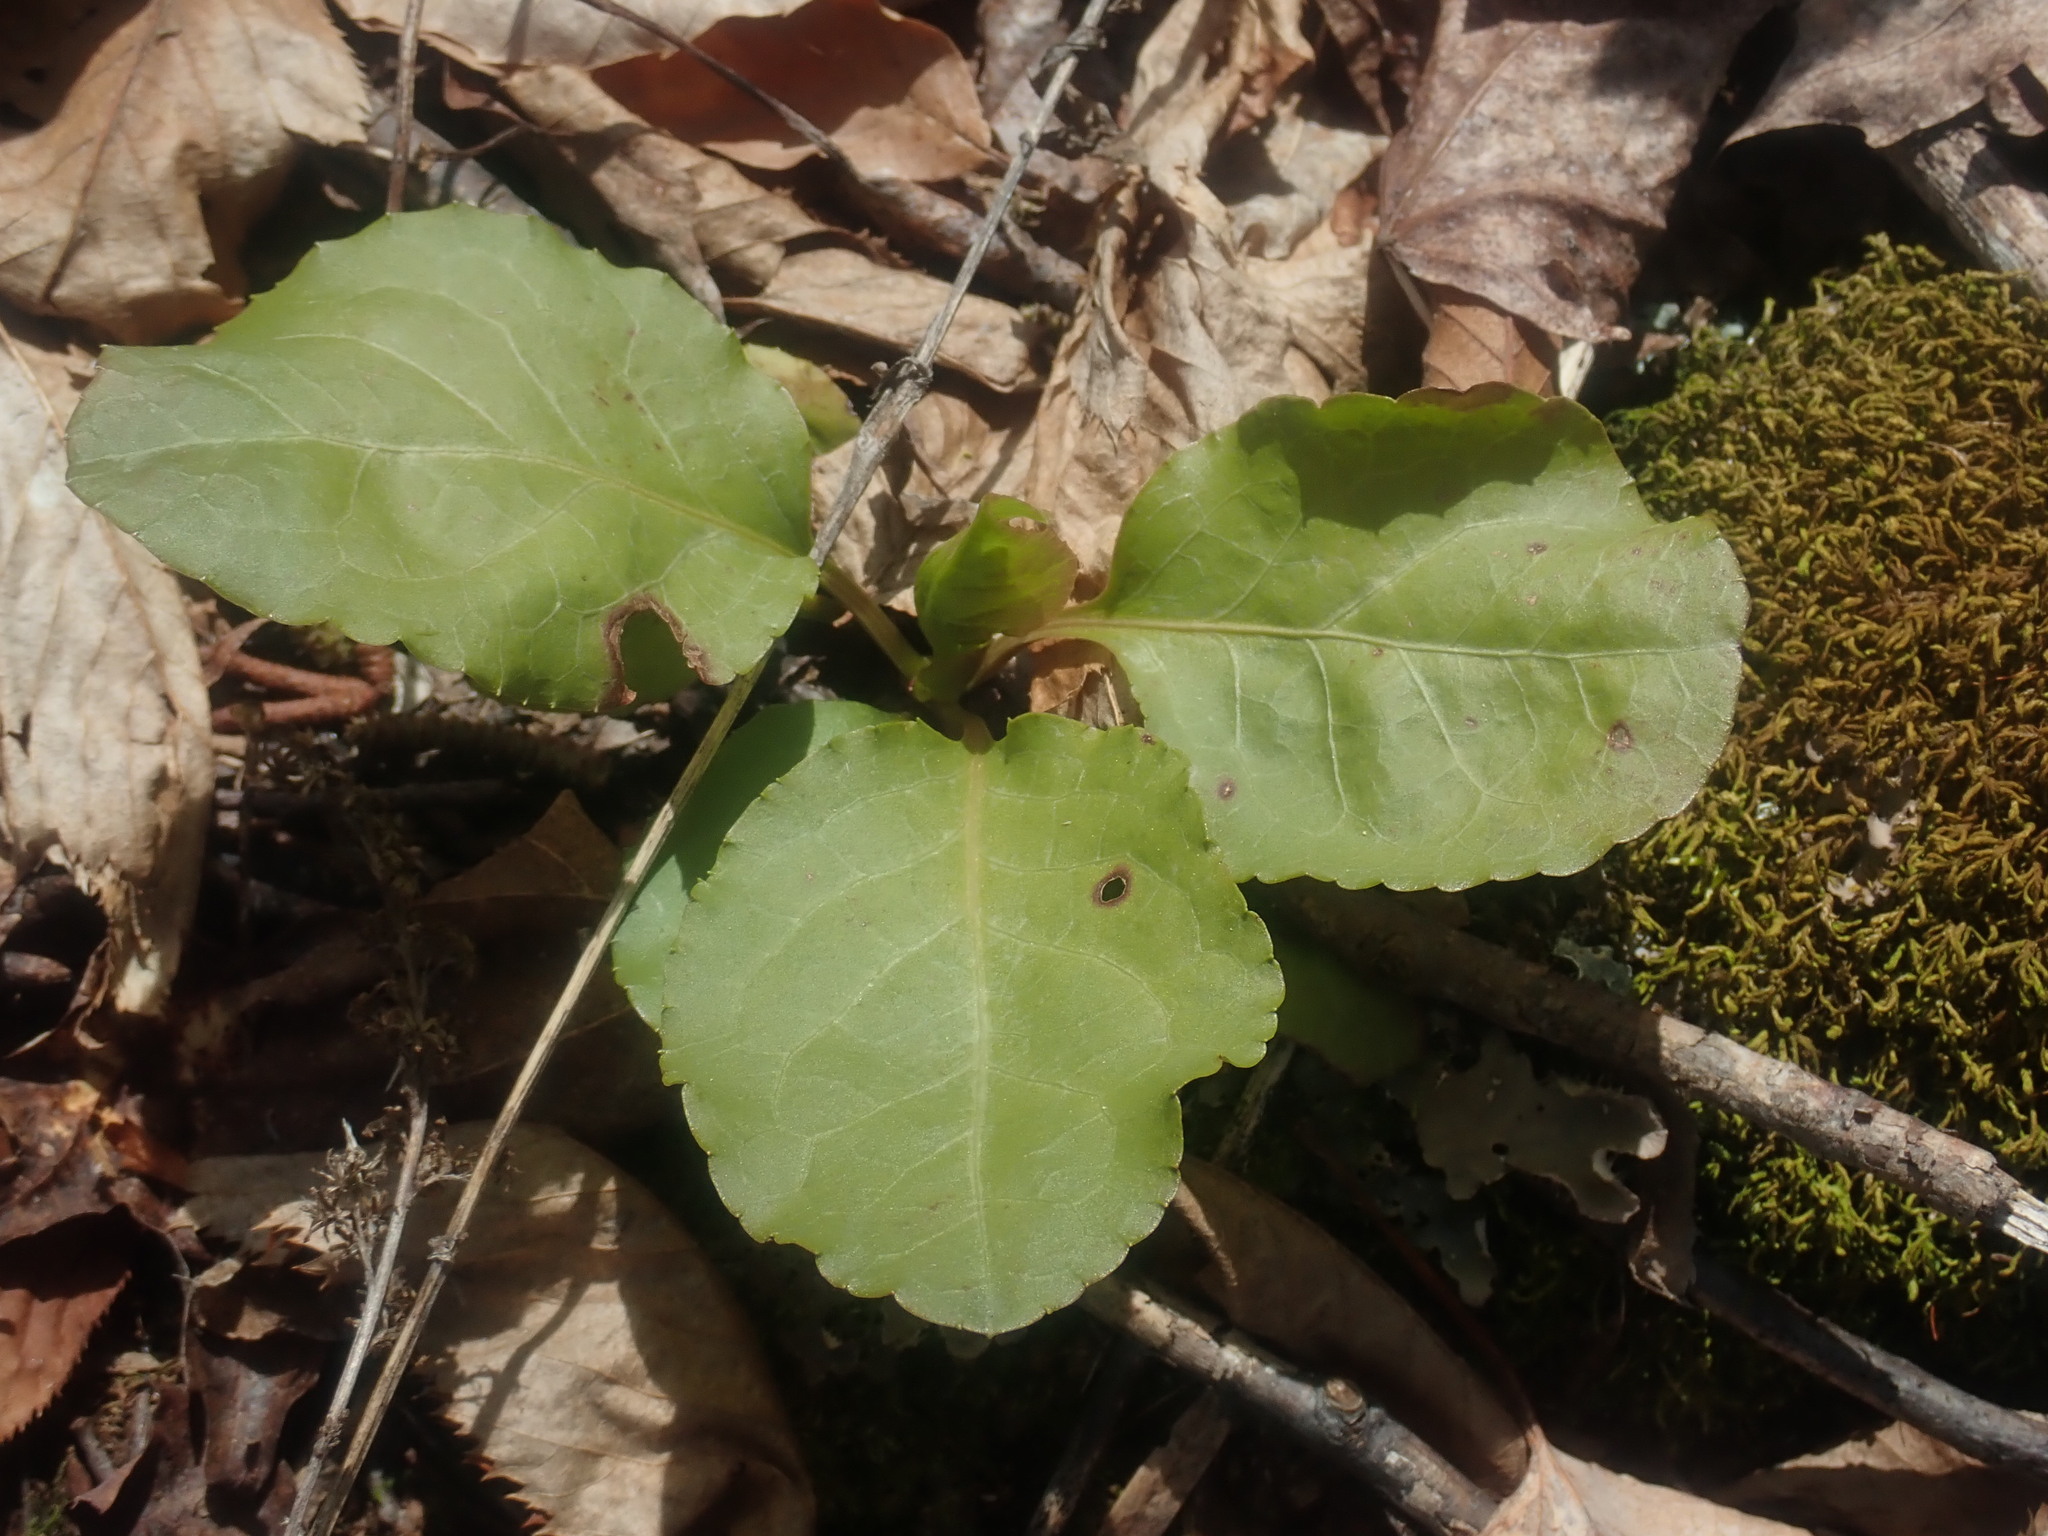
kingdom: Plantae
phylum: Tracheophyta
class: Magnoliopsida
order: Ericales
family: Ericaceae
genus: Pyrola
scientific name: Pyrola elliptica
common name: Shinleaf
